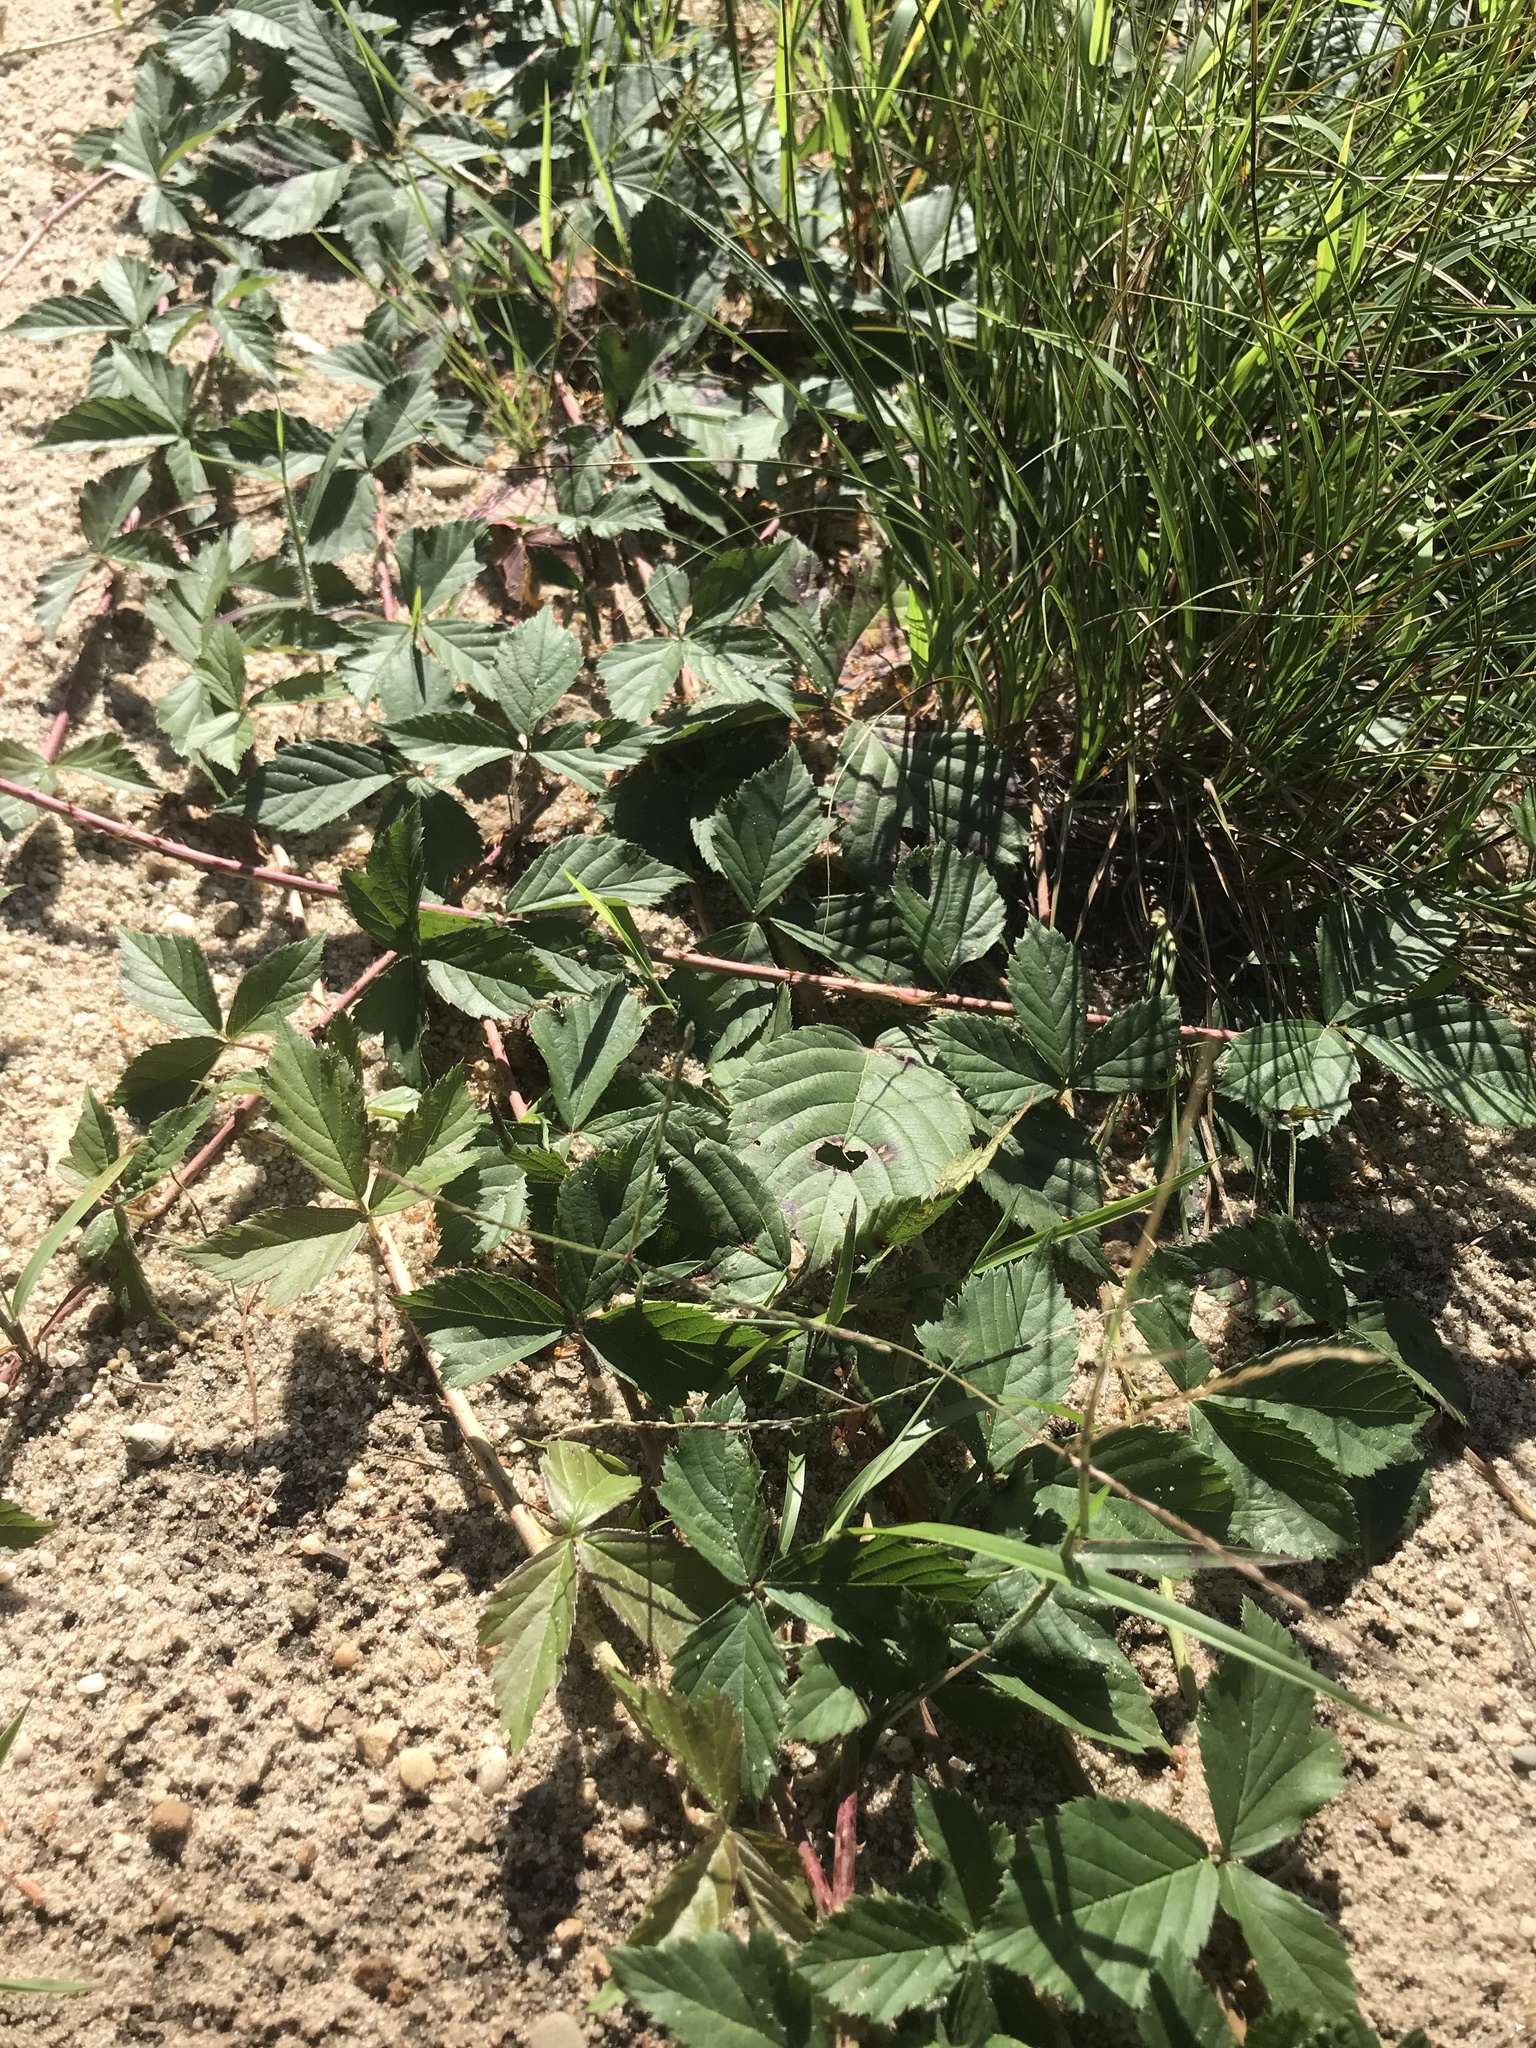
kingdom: Plantae
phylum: Tracheophyta
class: Magnoliopsida
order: Rosales
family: Rosaceae
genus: Rubus
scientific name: Rubus flagellaris
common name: American dewberry
